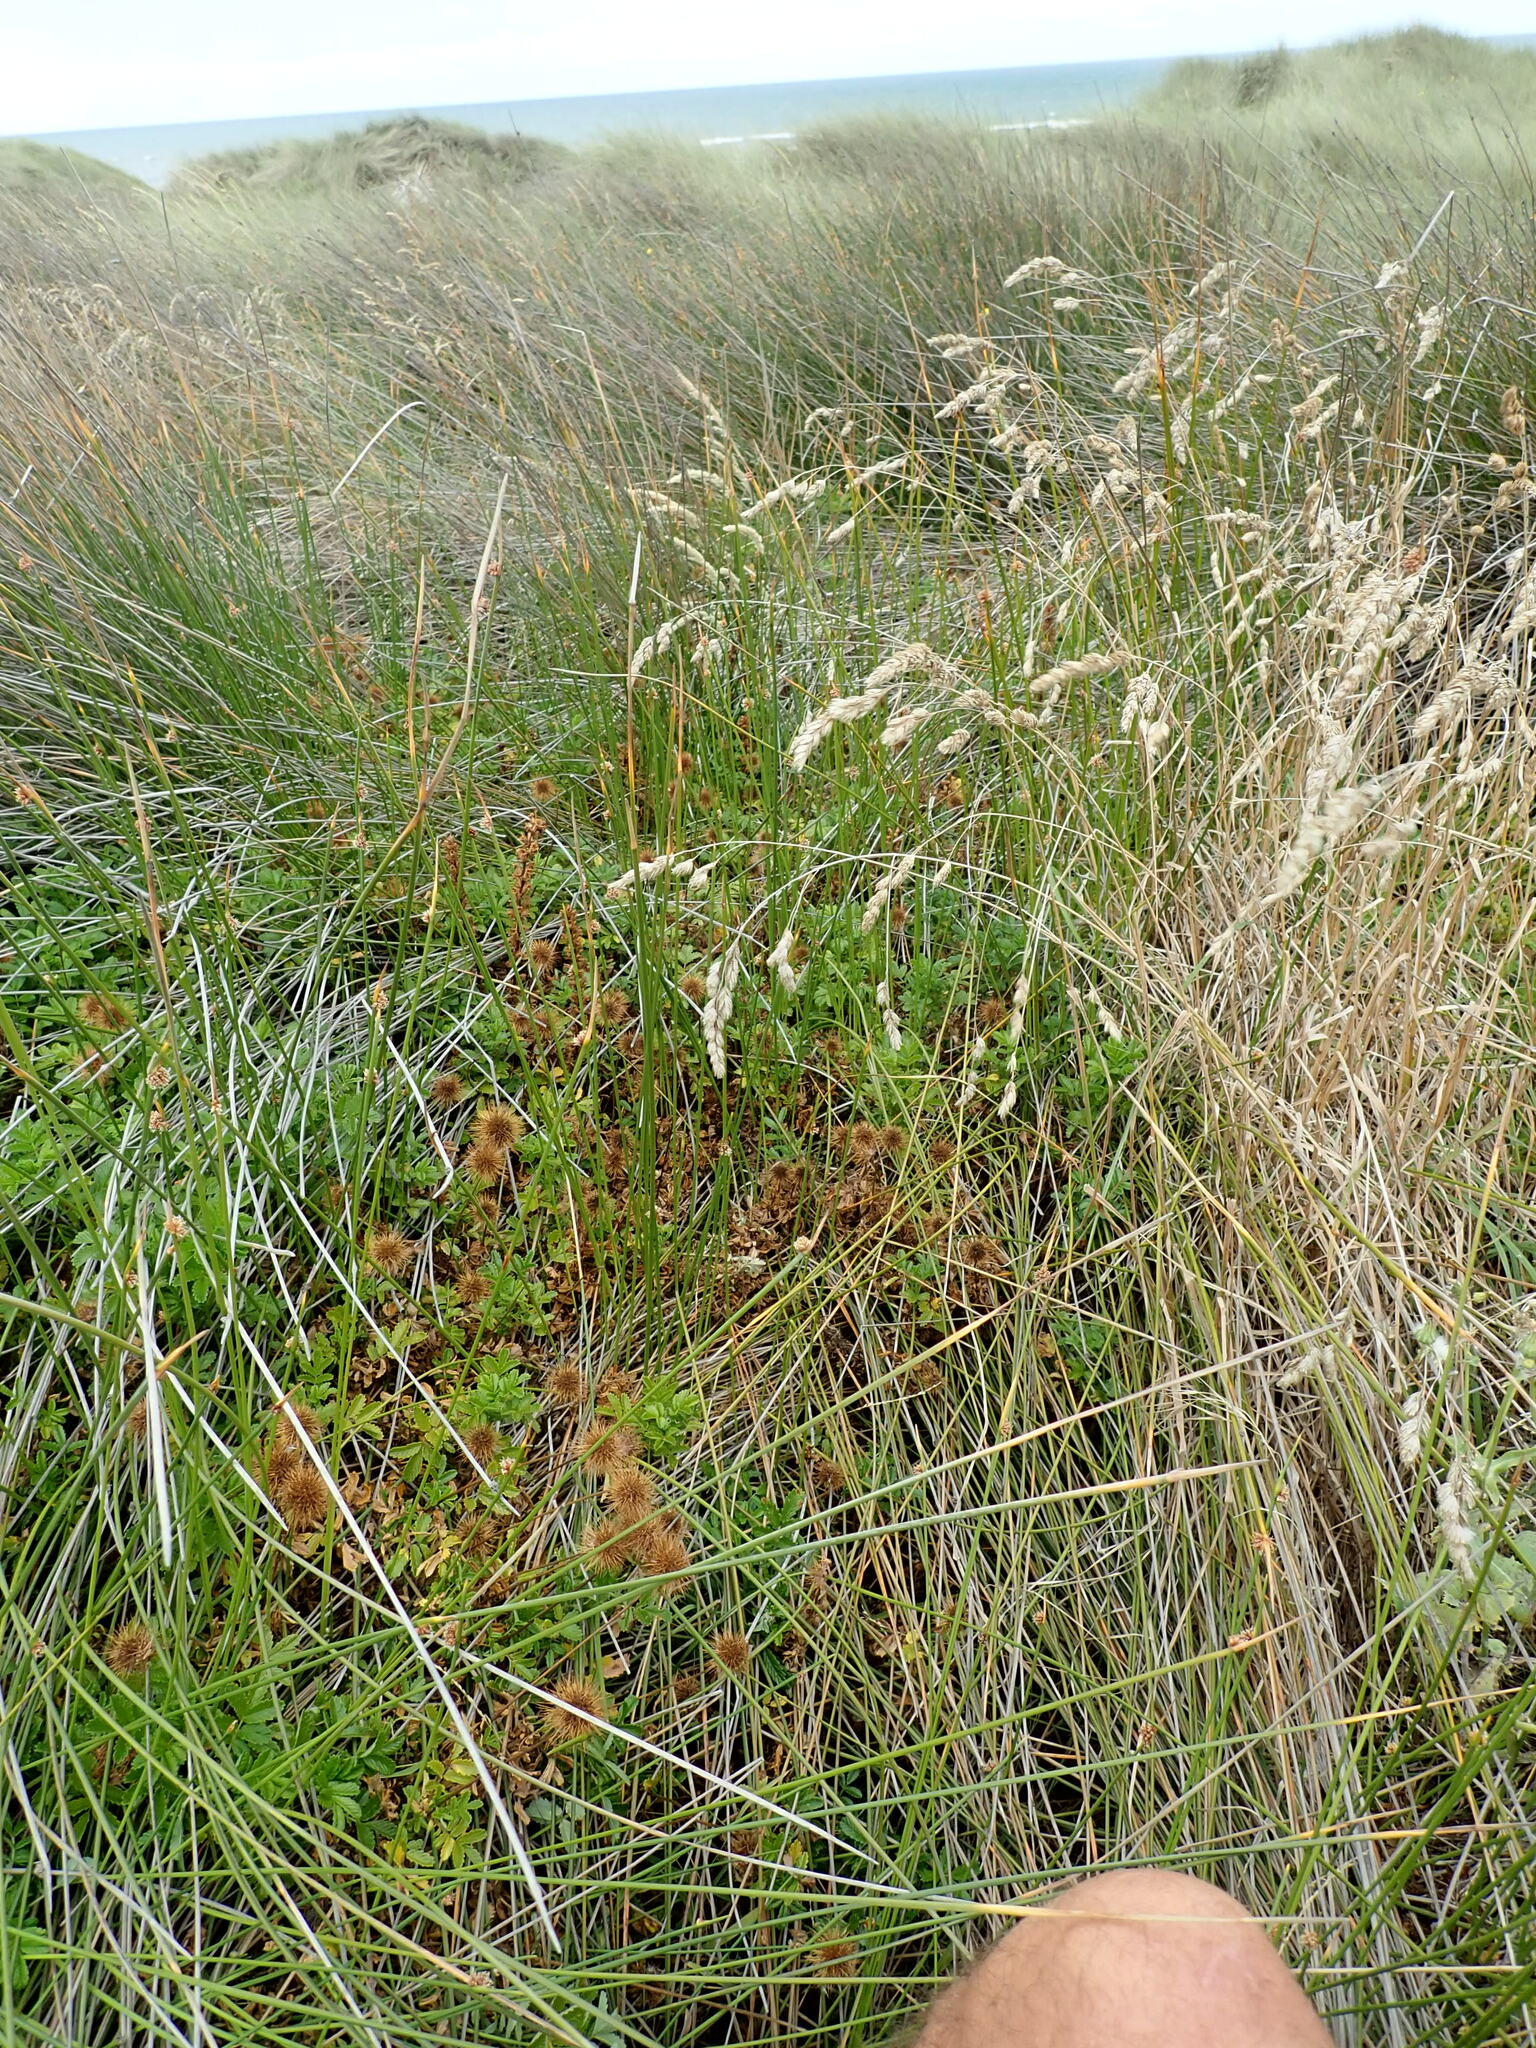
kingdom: Plantae
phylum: Tracheophyta
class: Magnoliopsida
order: Rosales
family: Rosaceae
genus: Acaena
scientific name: Acaena novae-zelandiae
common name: Pirri-pirri-bur
